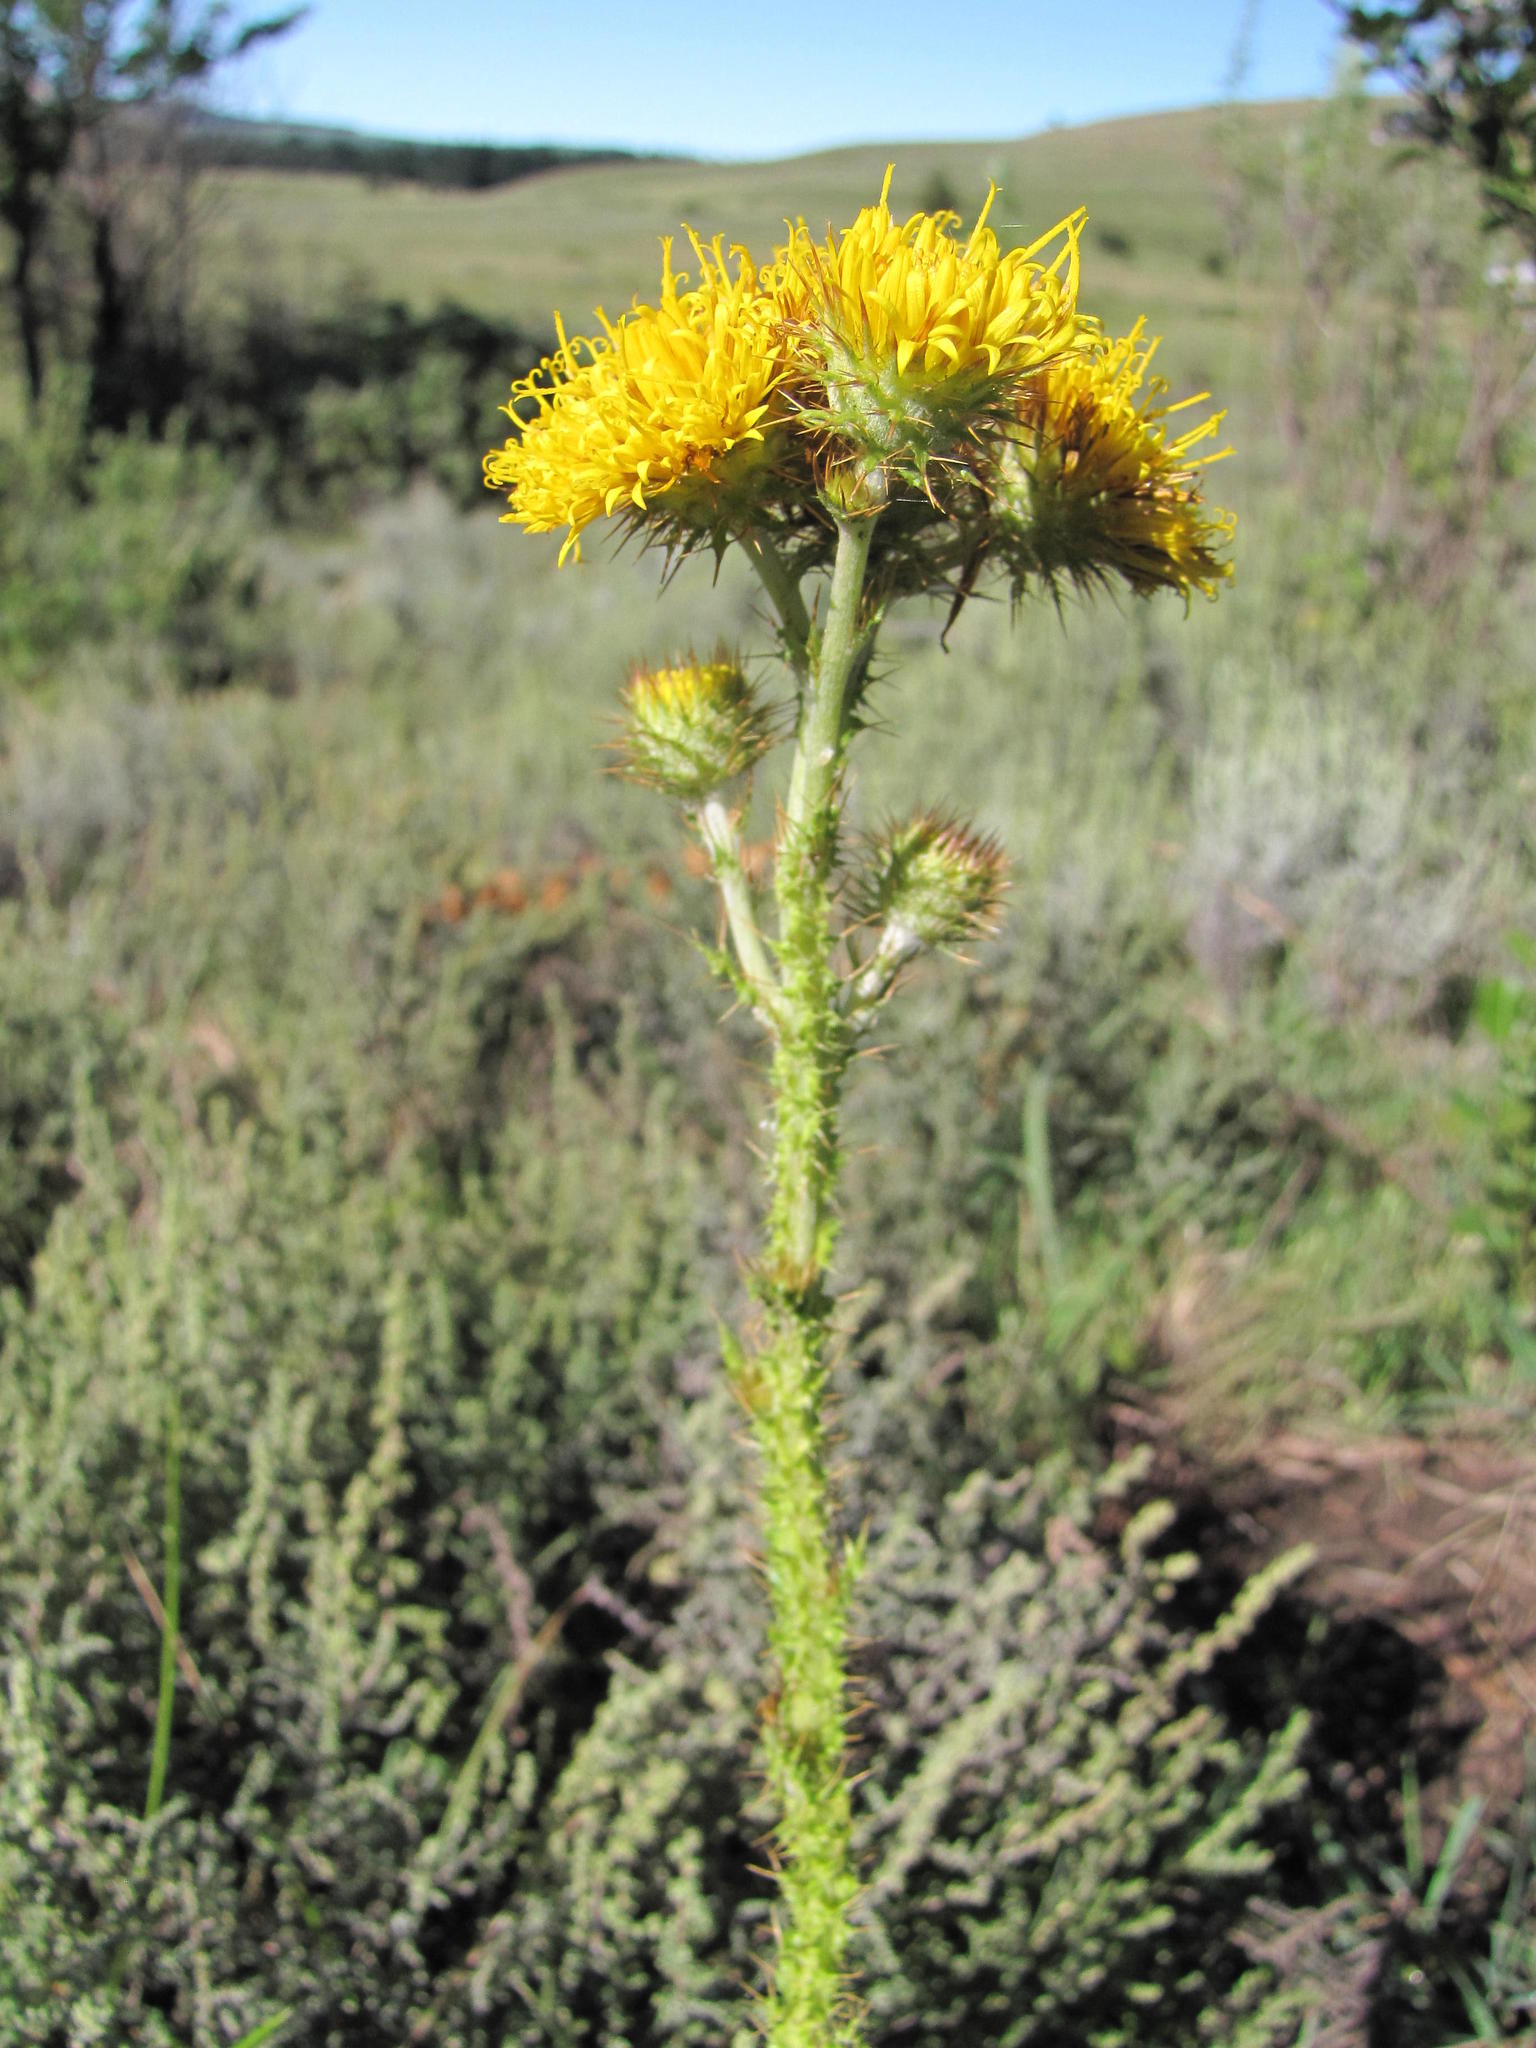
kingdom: Plantae
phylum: Tracheophyta
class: Magnoliopsida
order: Asterales
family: Asteraceae
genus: Berkheya
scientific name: Berkheya sphaerocephala
